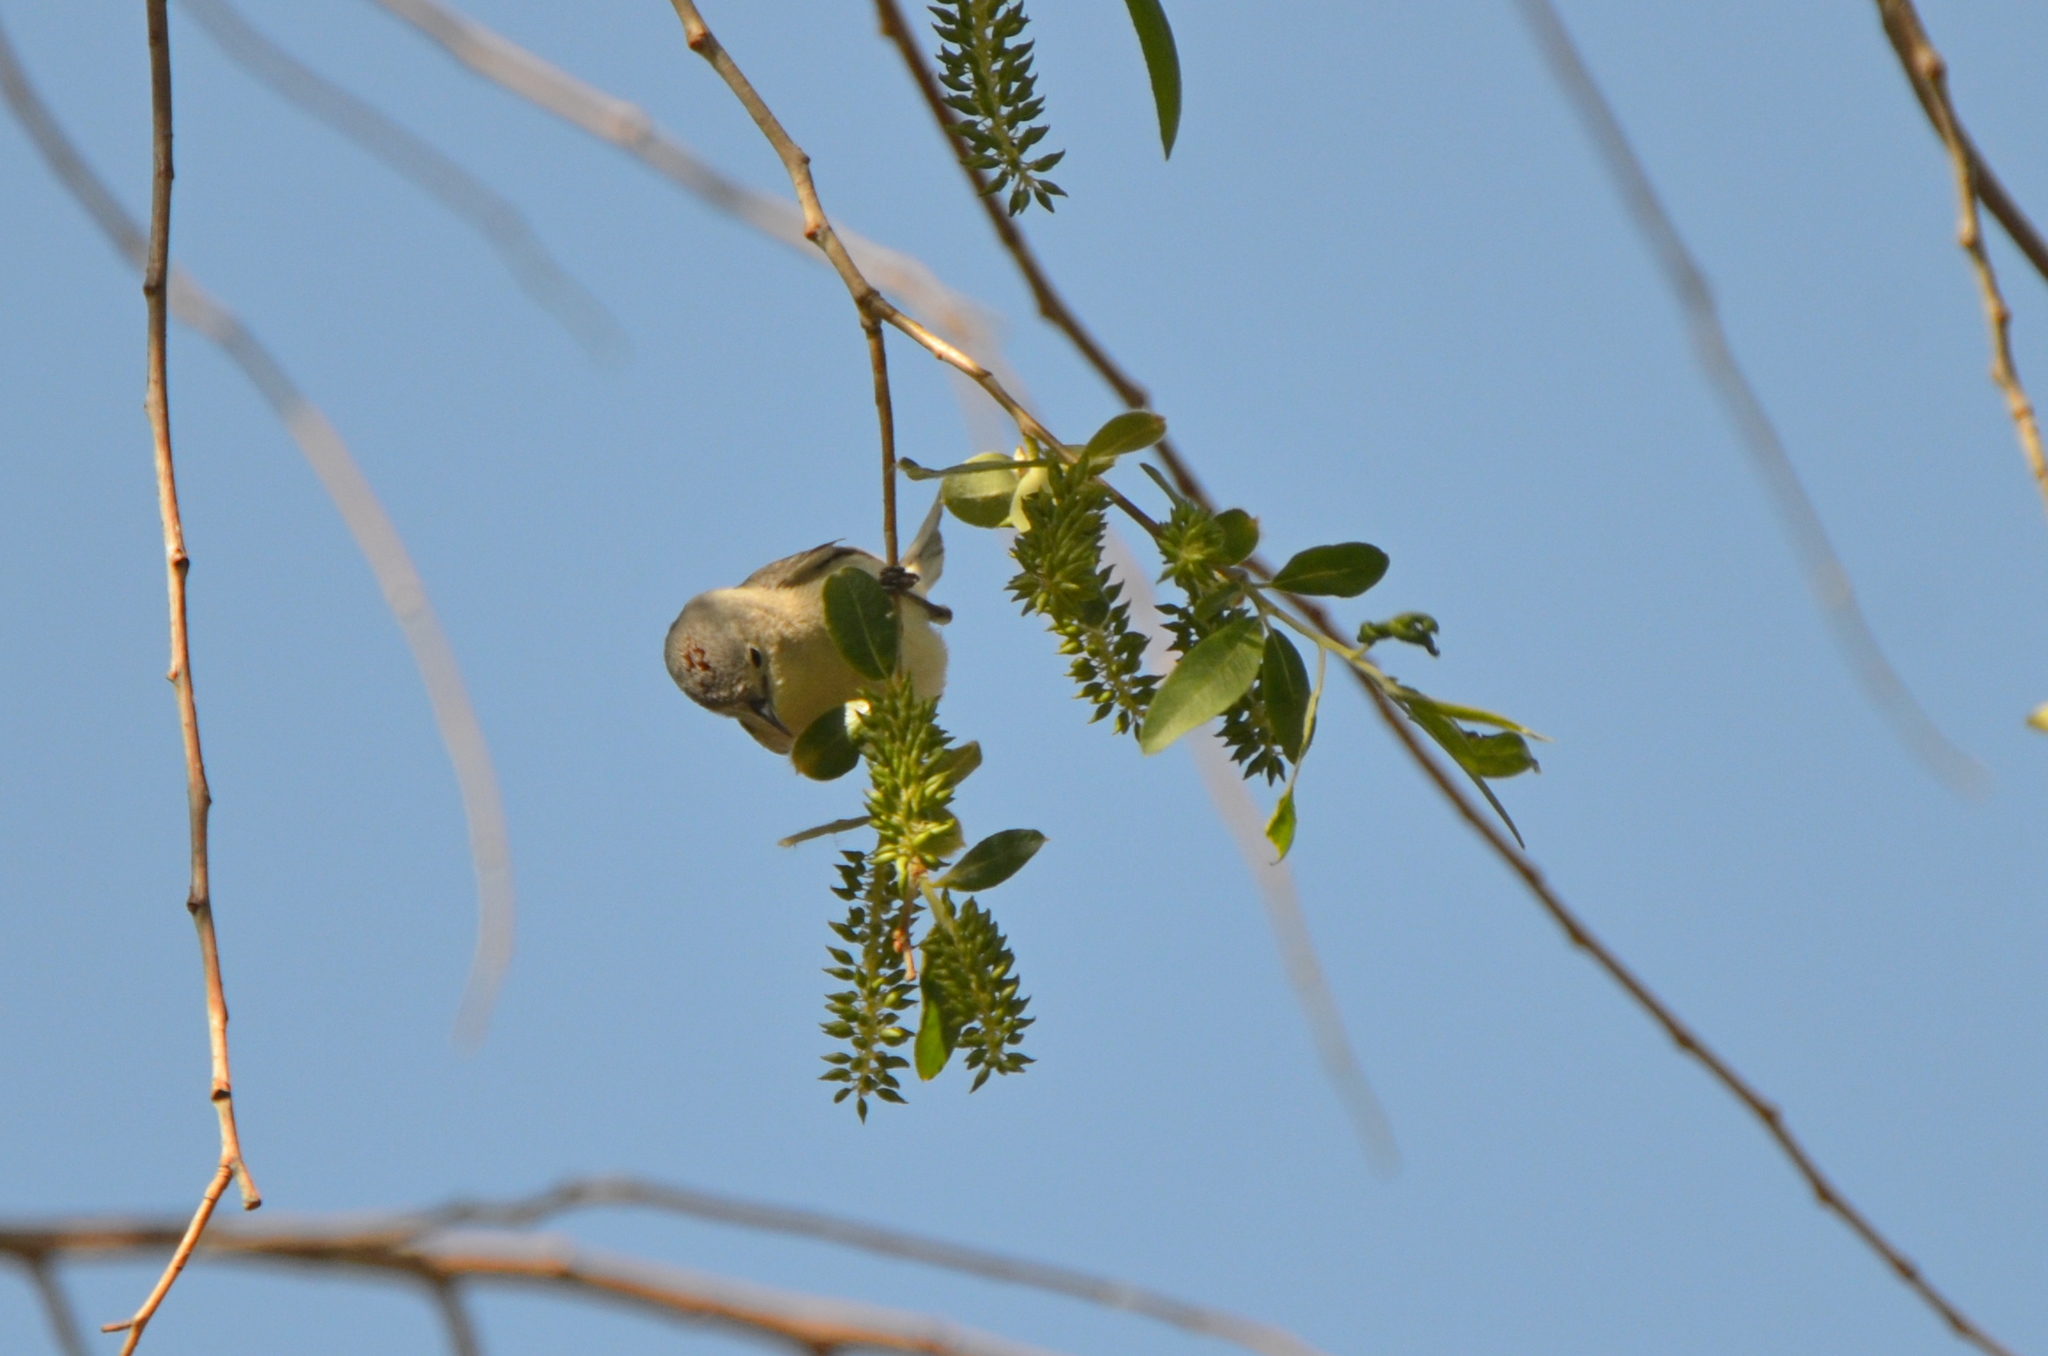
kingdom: Animalia
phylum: Chordata
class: Aves
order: Passeriformes
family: Parulidae
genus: Leiothlypis
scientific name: Leiothlypis luciae
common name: Lucy's warbler
